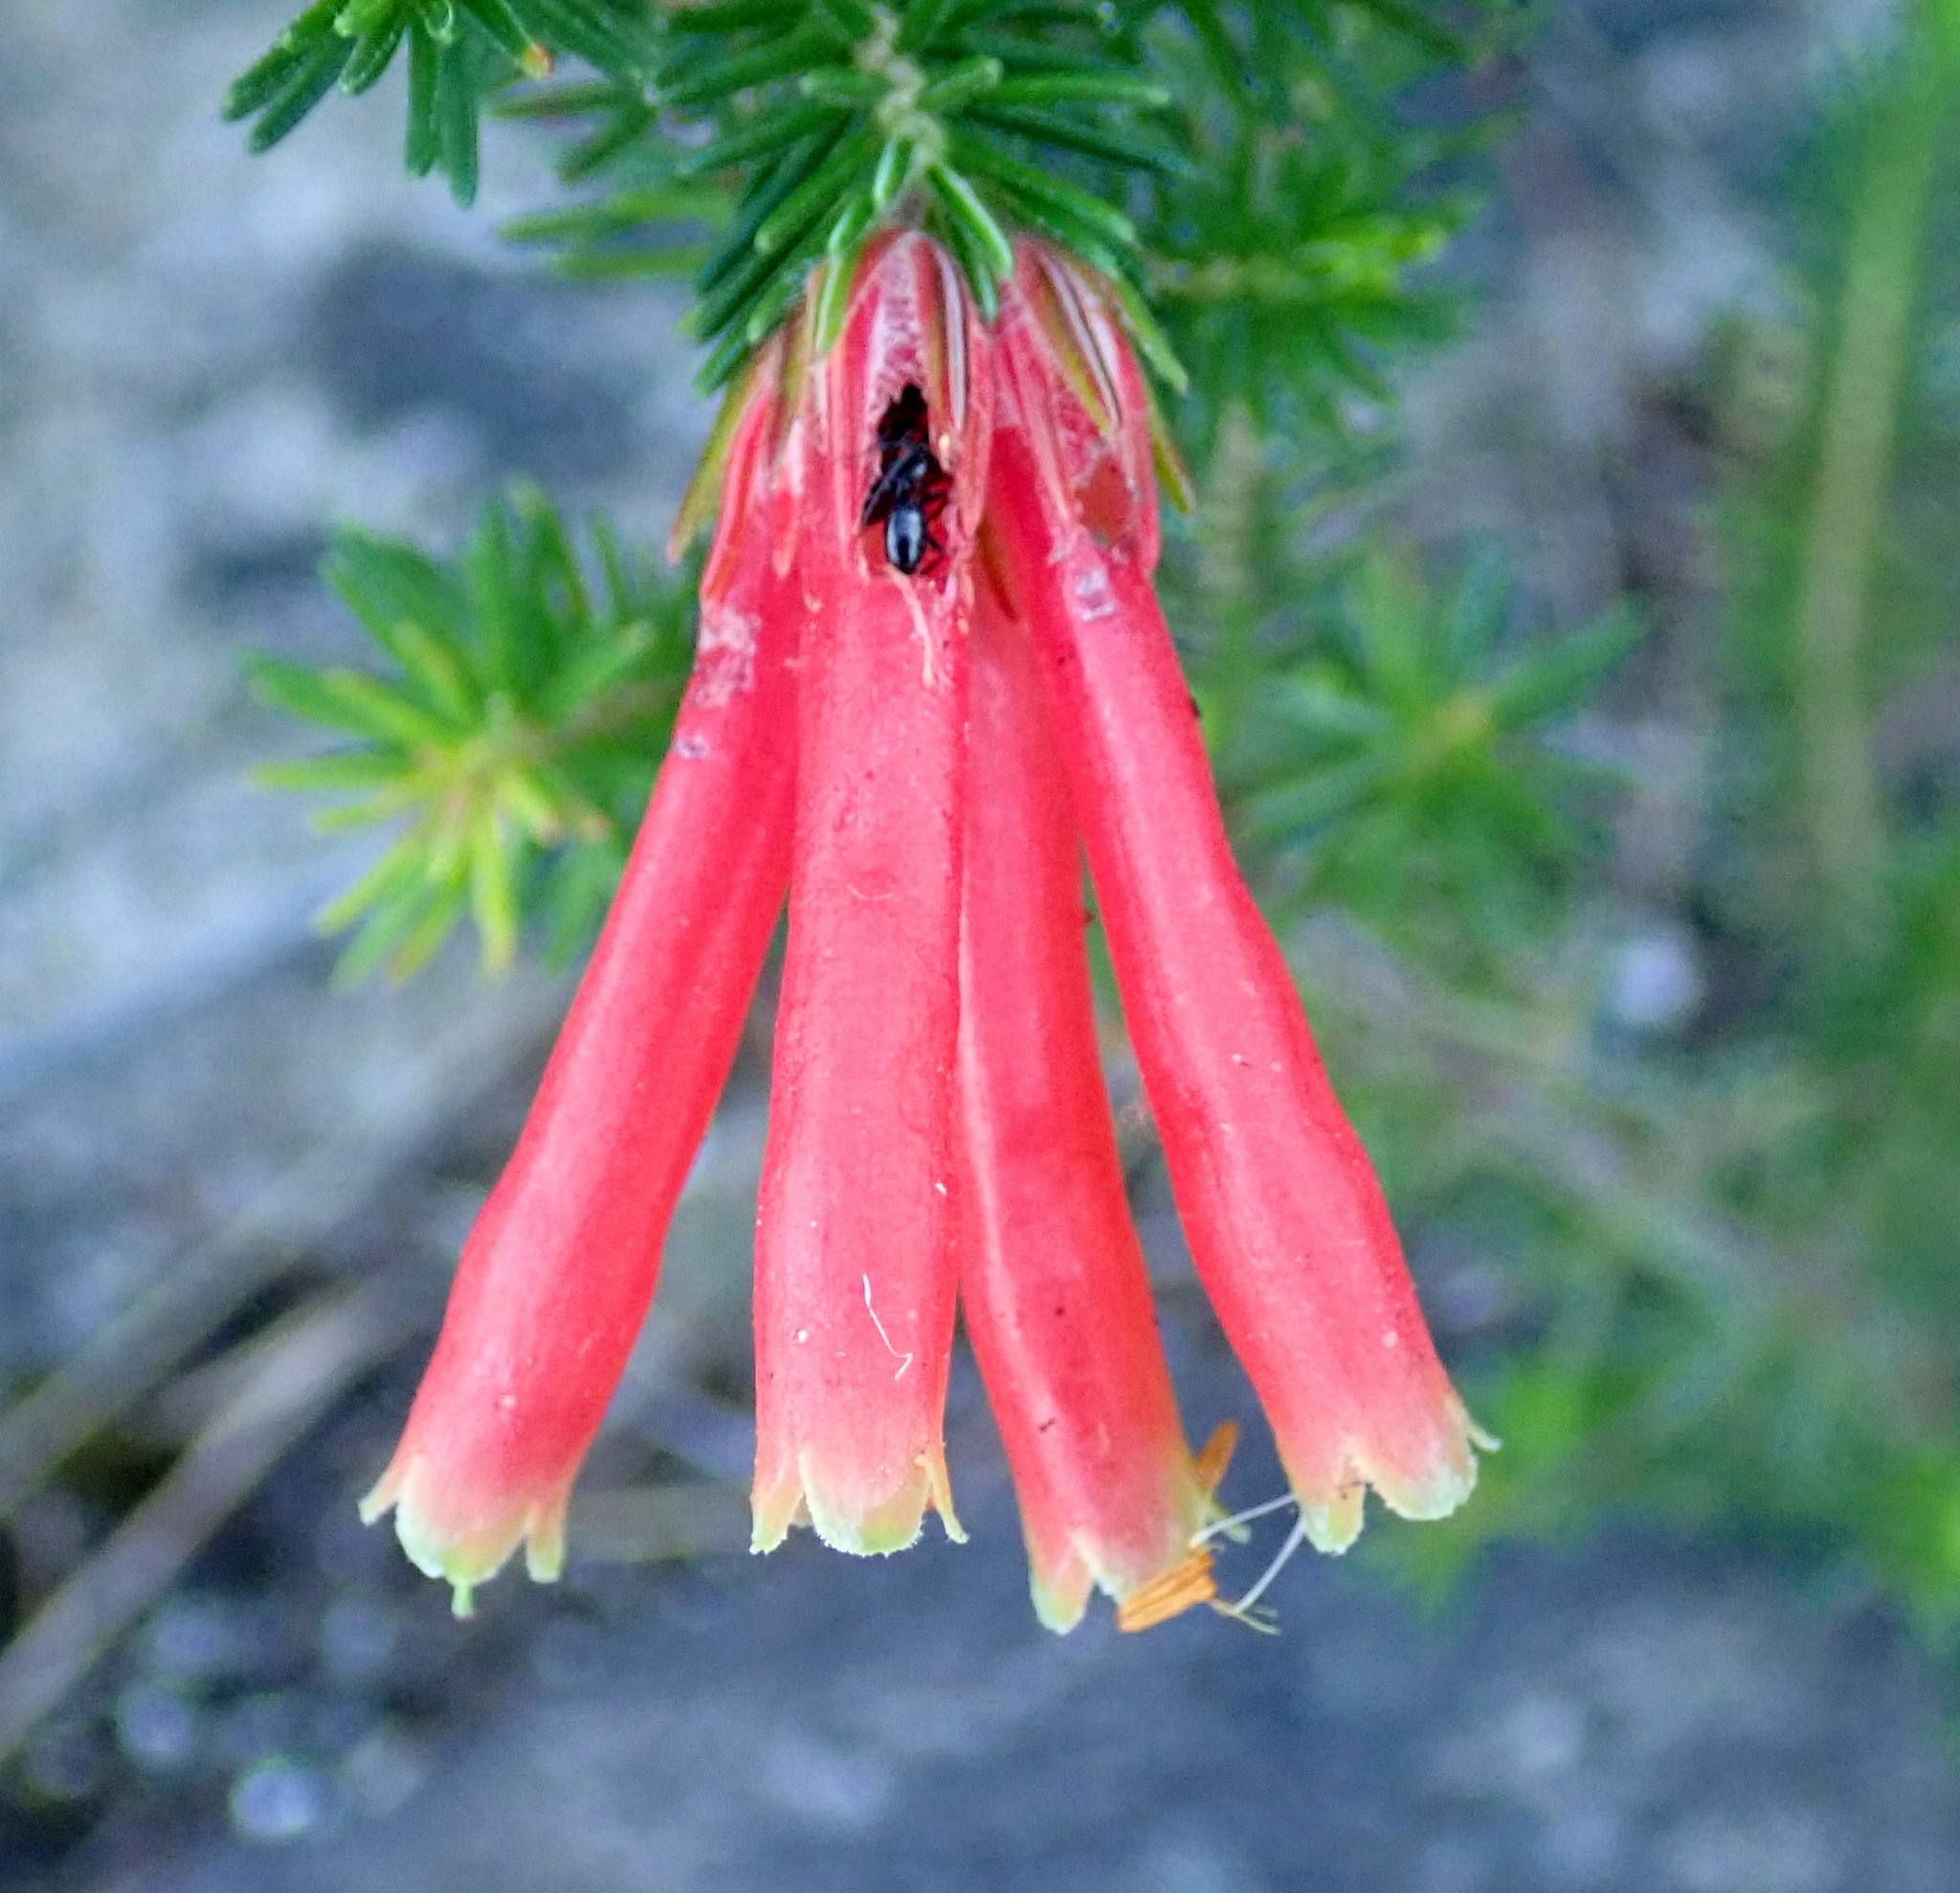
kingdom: Plantae
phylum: Tracheophyta
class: Magnoliopsida
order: Ericales
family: Ericaceae
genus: Erica
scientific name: Erica unicolor
